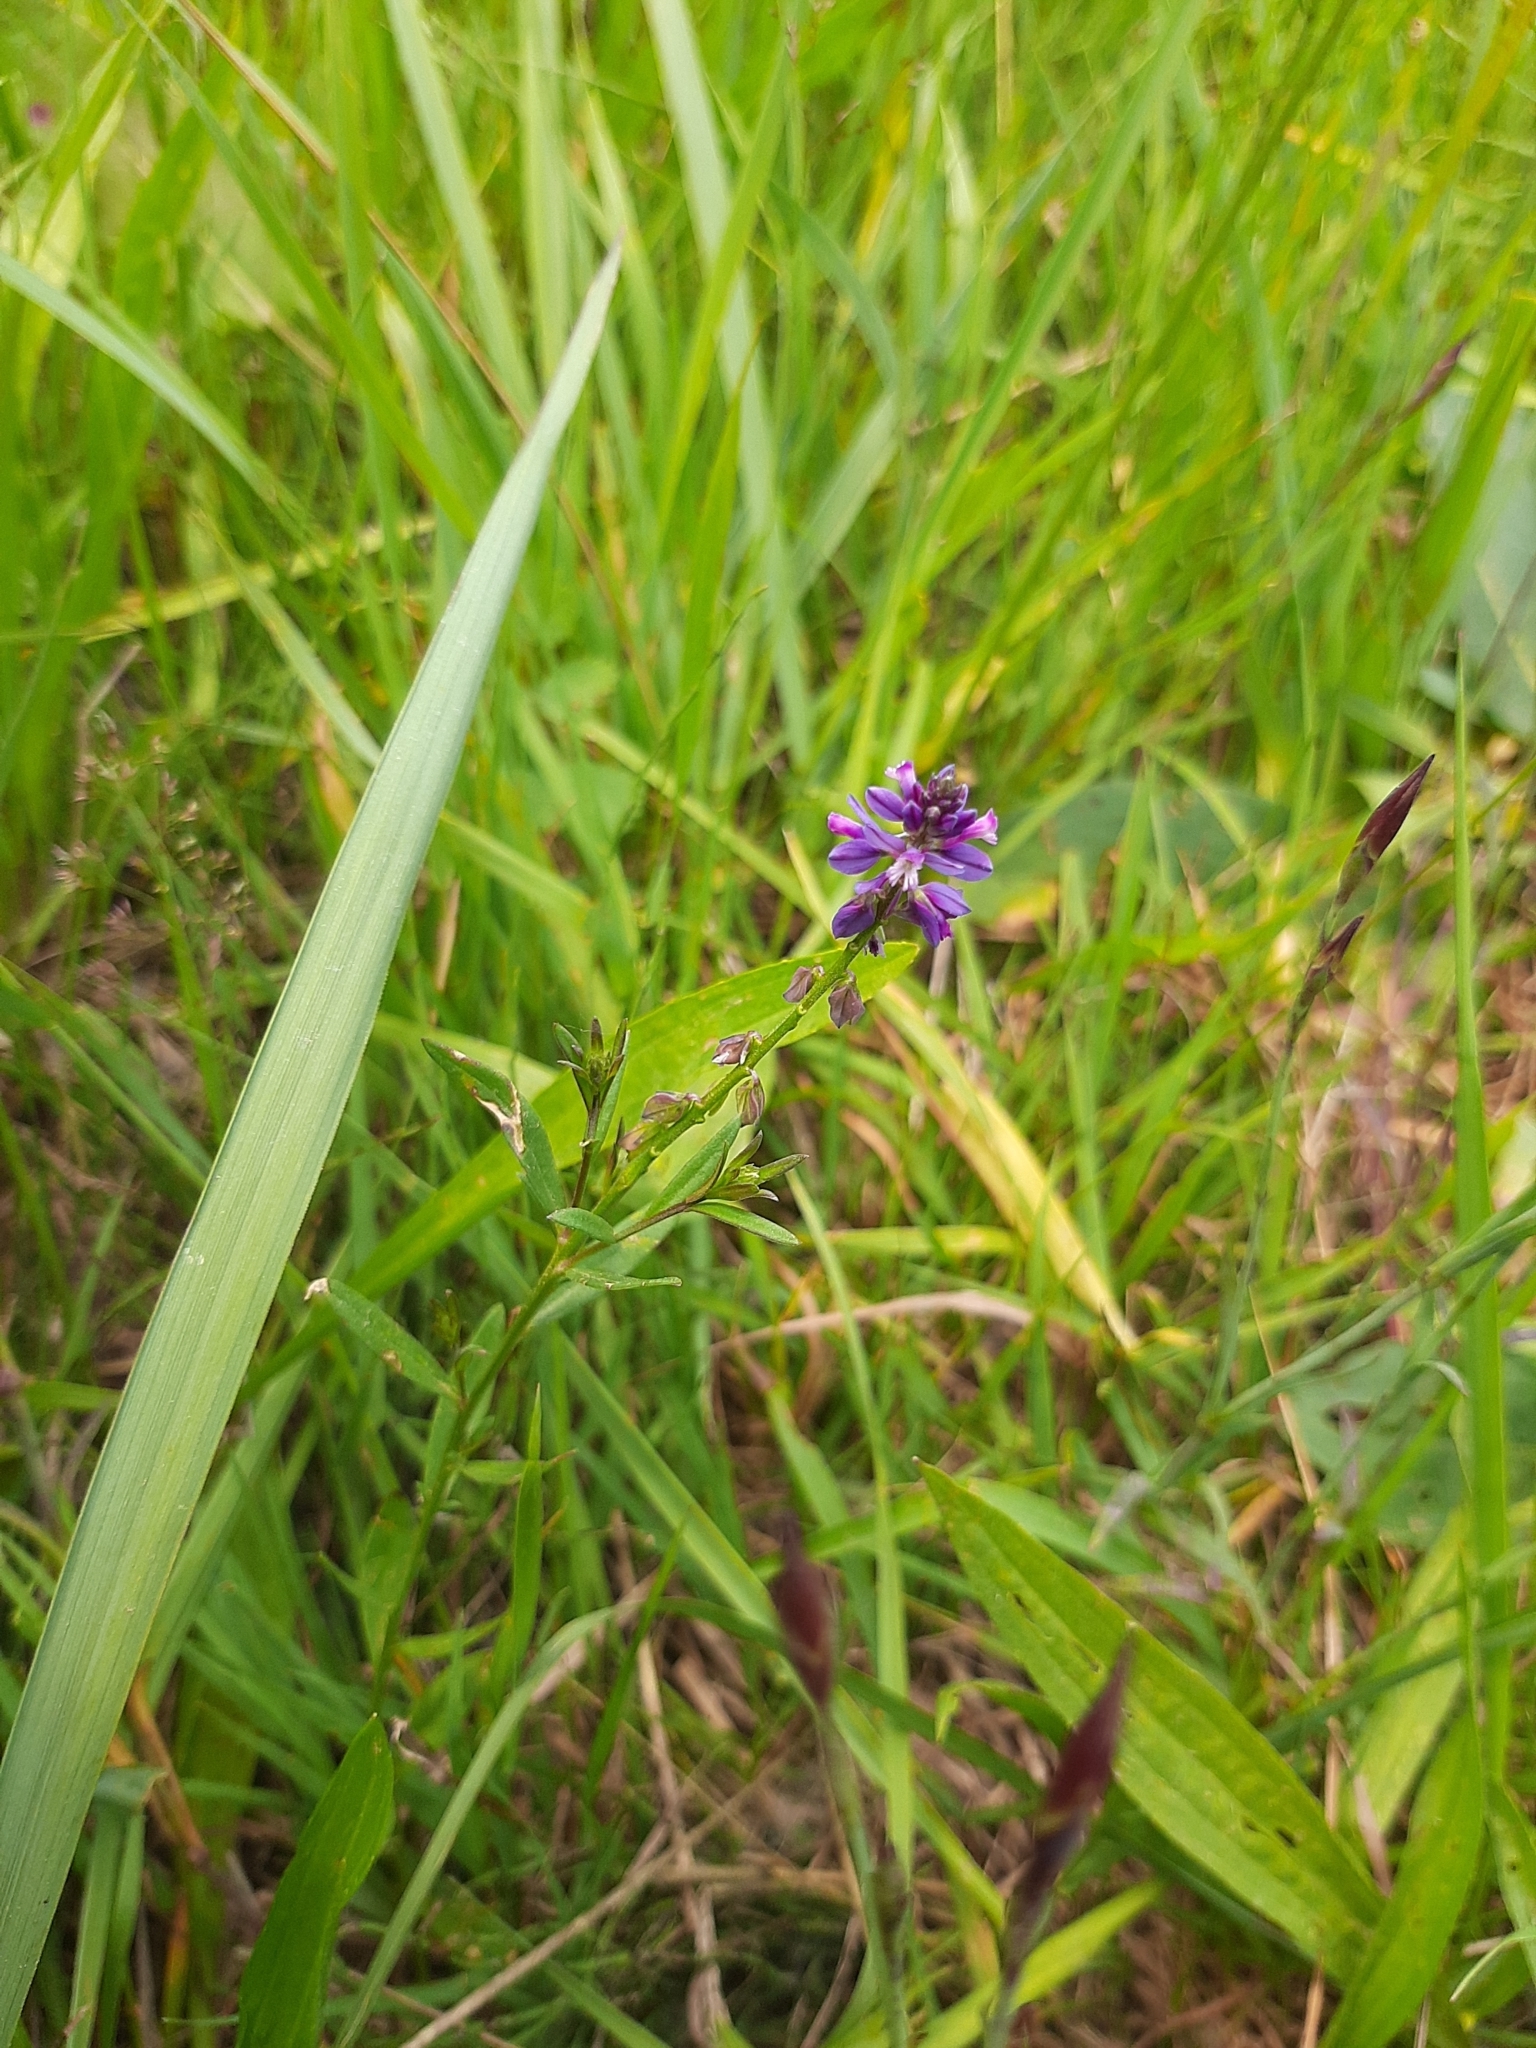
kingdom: Plantae
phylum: Tracheophyta
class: Magnoliopsida
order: Fabales
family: Polygalaceae
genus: Polygala
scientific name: Polygala comosa
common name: Tufted milkwort
